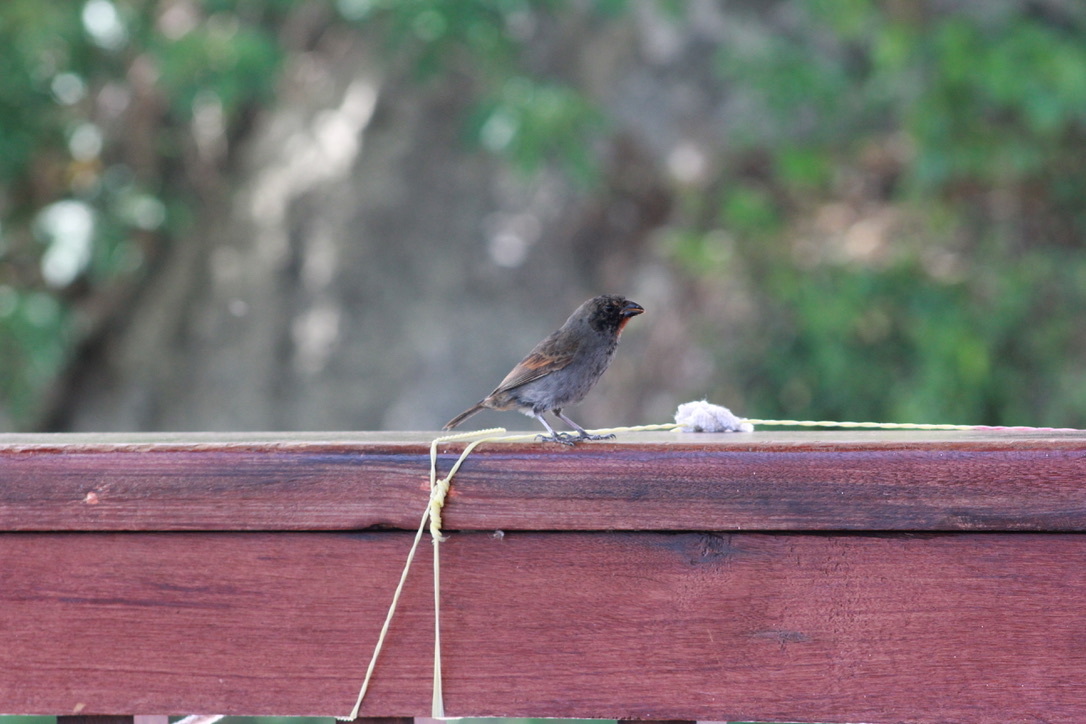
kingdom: Animalia
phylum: Chordata
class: Aves
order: Passeriformes
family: Thraupidae
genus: Loxigilla
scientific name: Loxigilla noctis
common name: Lesser antillean bullfinch
